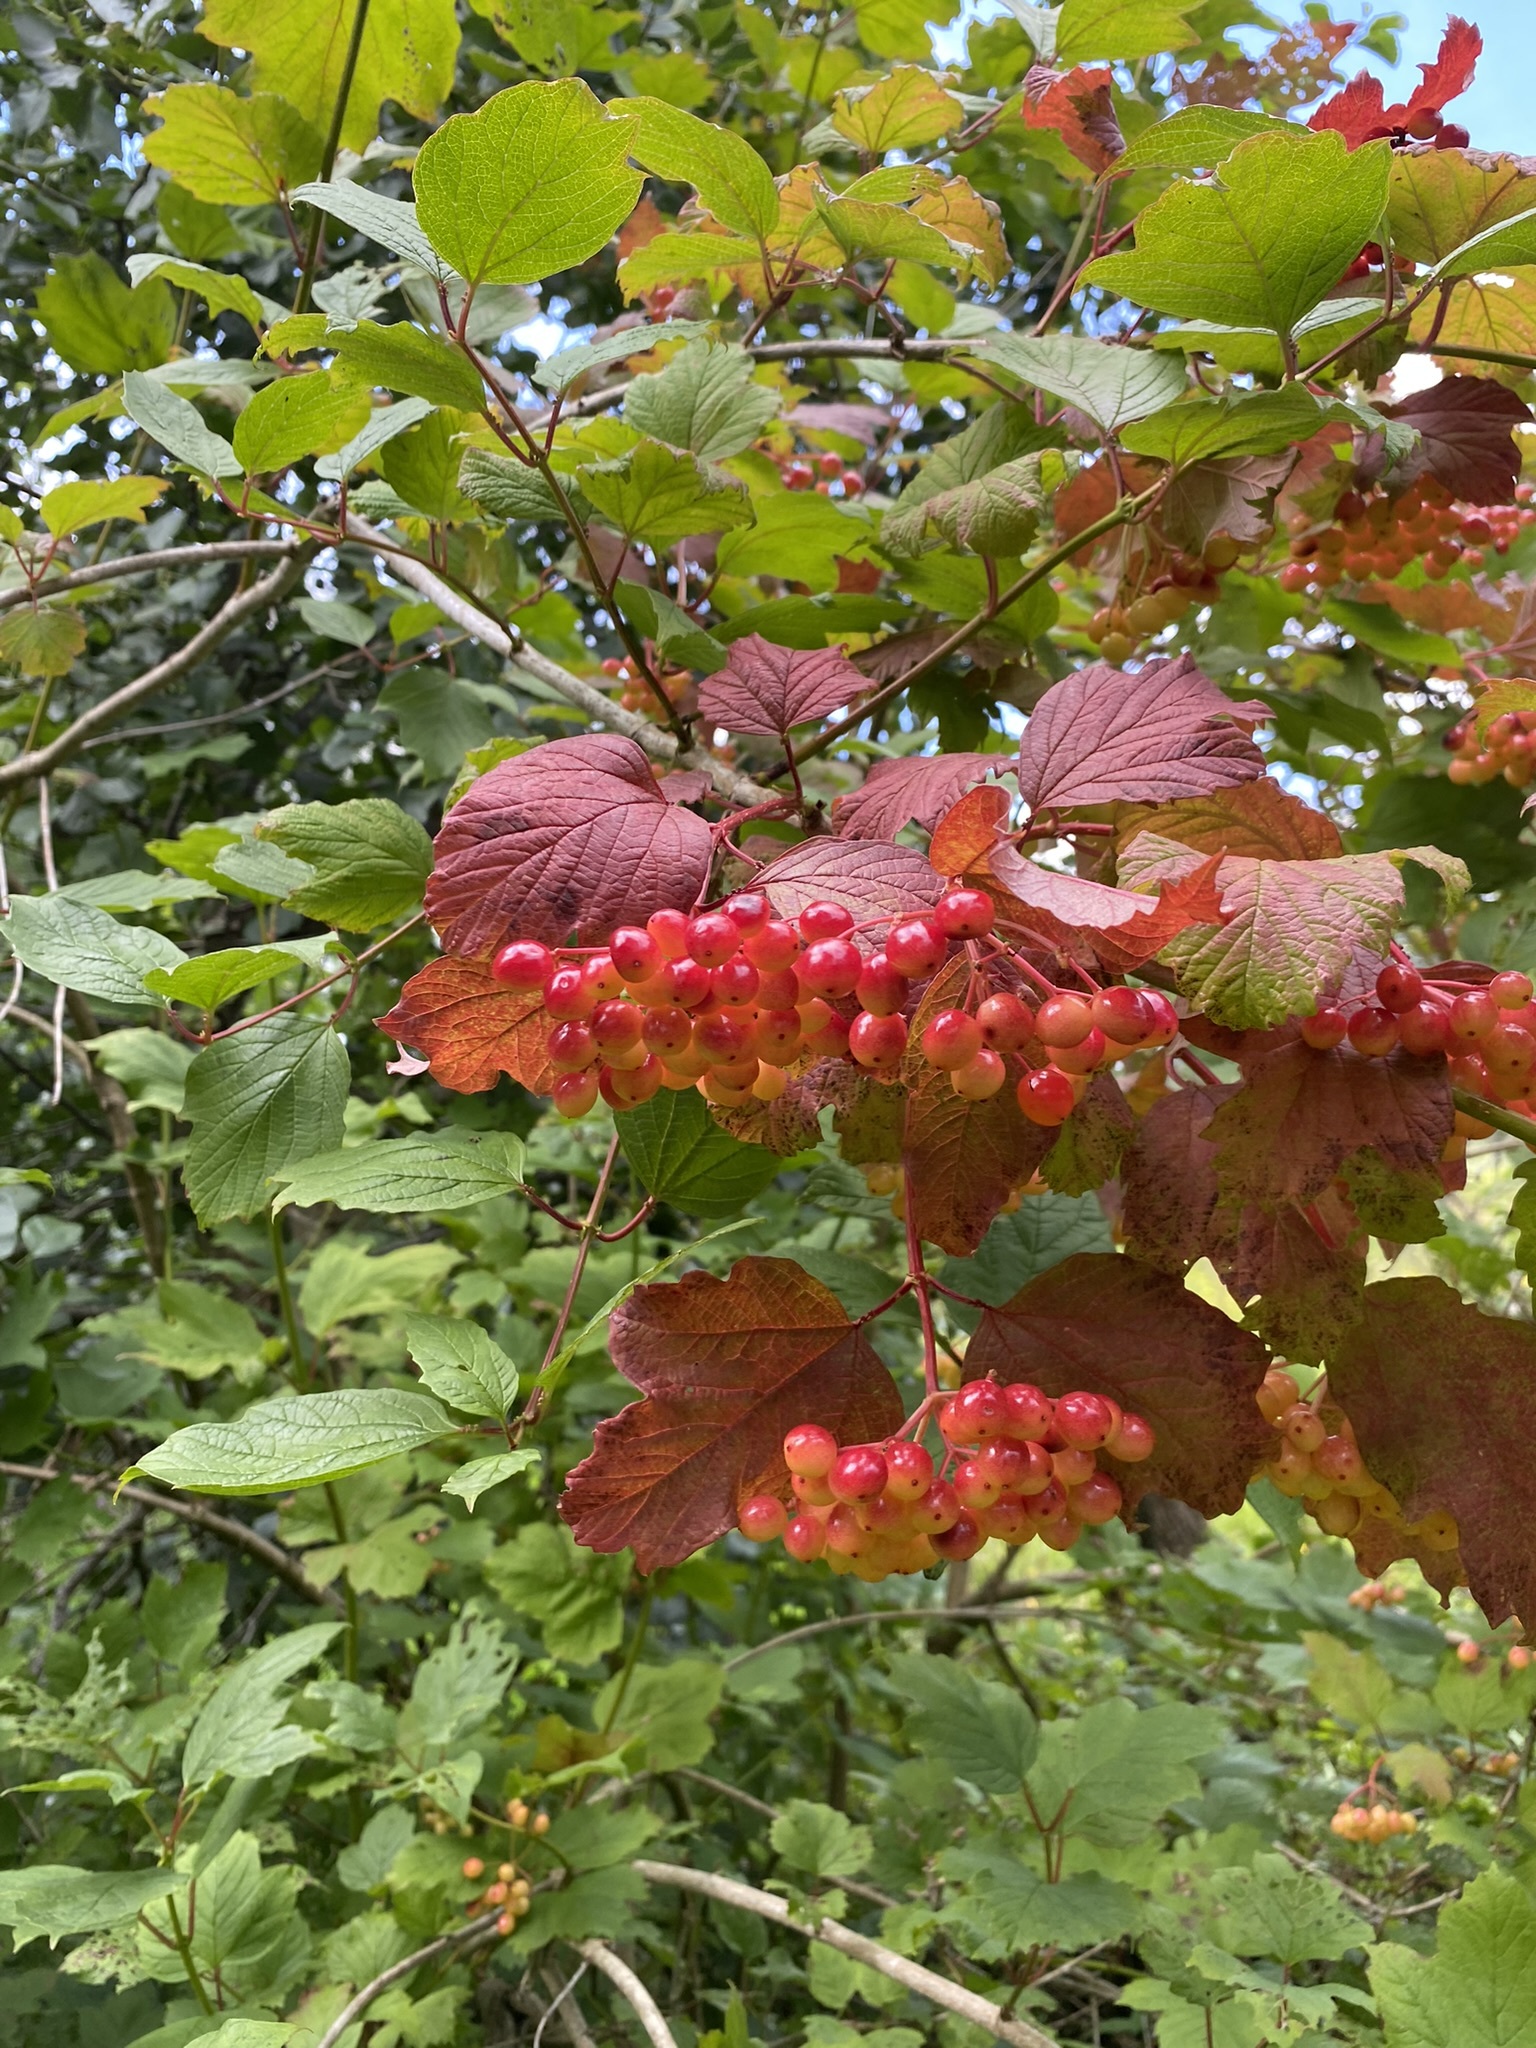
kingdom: Plantae
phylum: Tracheophyta
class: Magnoliopsida
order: Dipsacales
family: Viburnaceae
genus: Viburnum
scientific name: Viburnum opulus
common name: Guelder-rose
